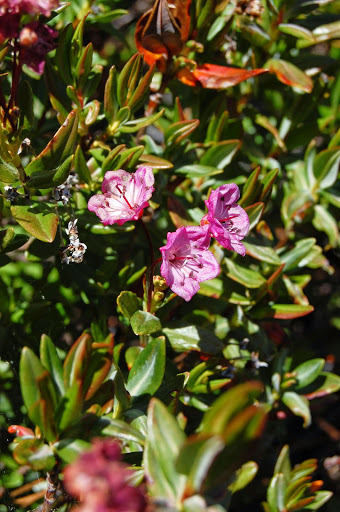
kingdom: Plantae
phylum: Tracheophyta
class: Magnoliopsida
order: Ericales
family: Ericaceae
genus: Kalmia
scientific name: Kalmia microphylla
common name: Alpine bog laurel
